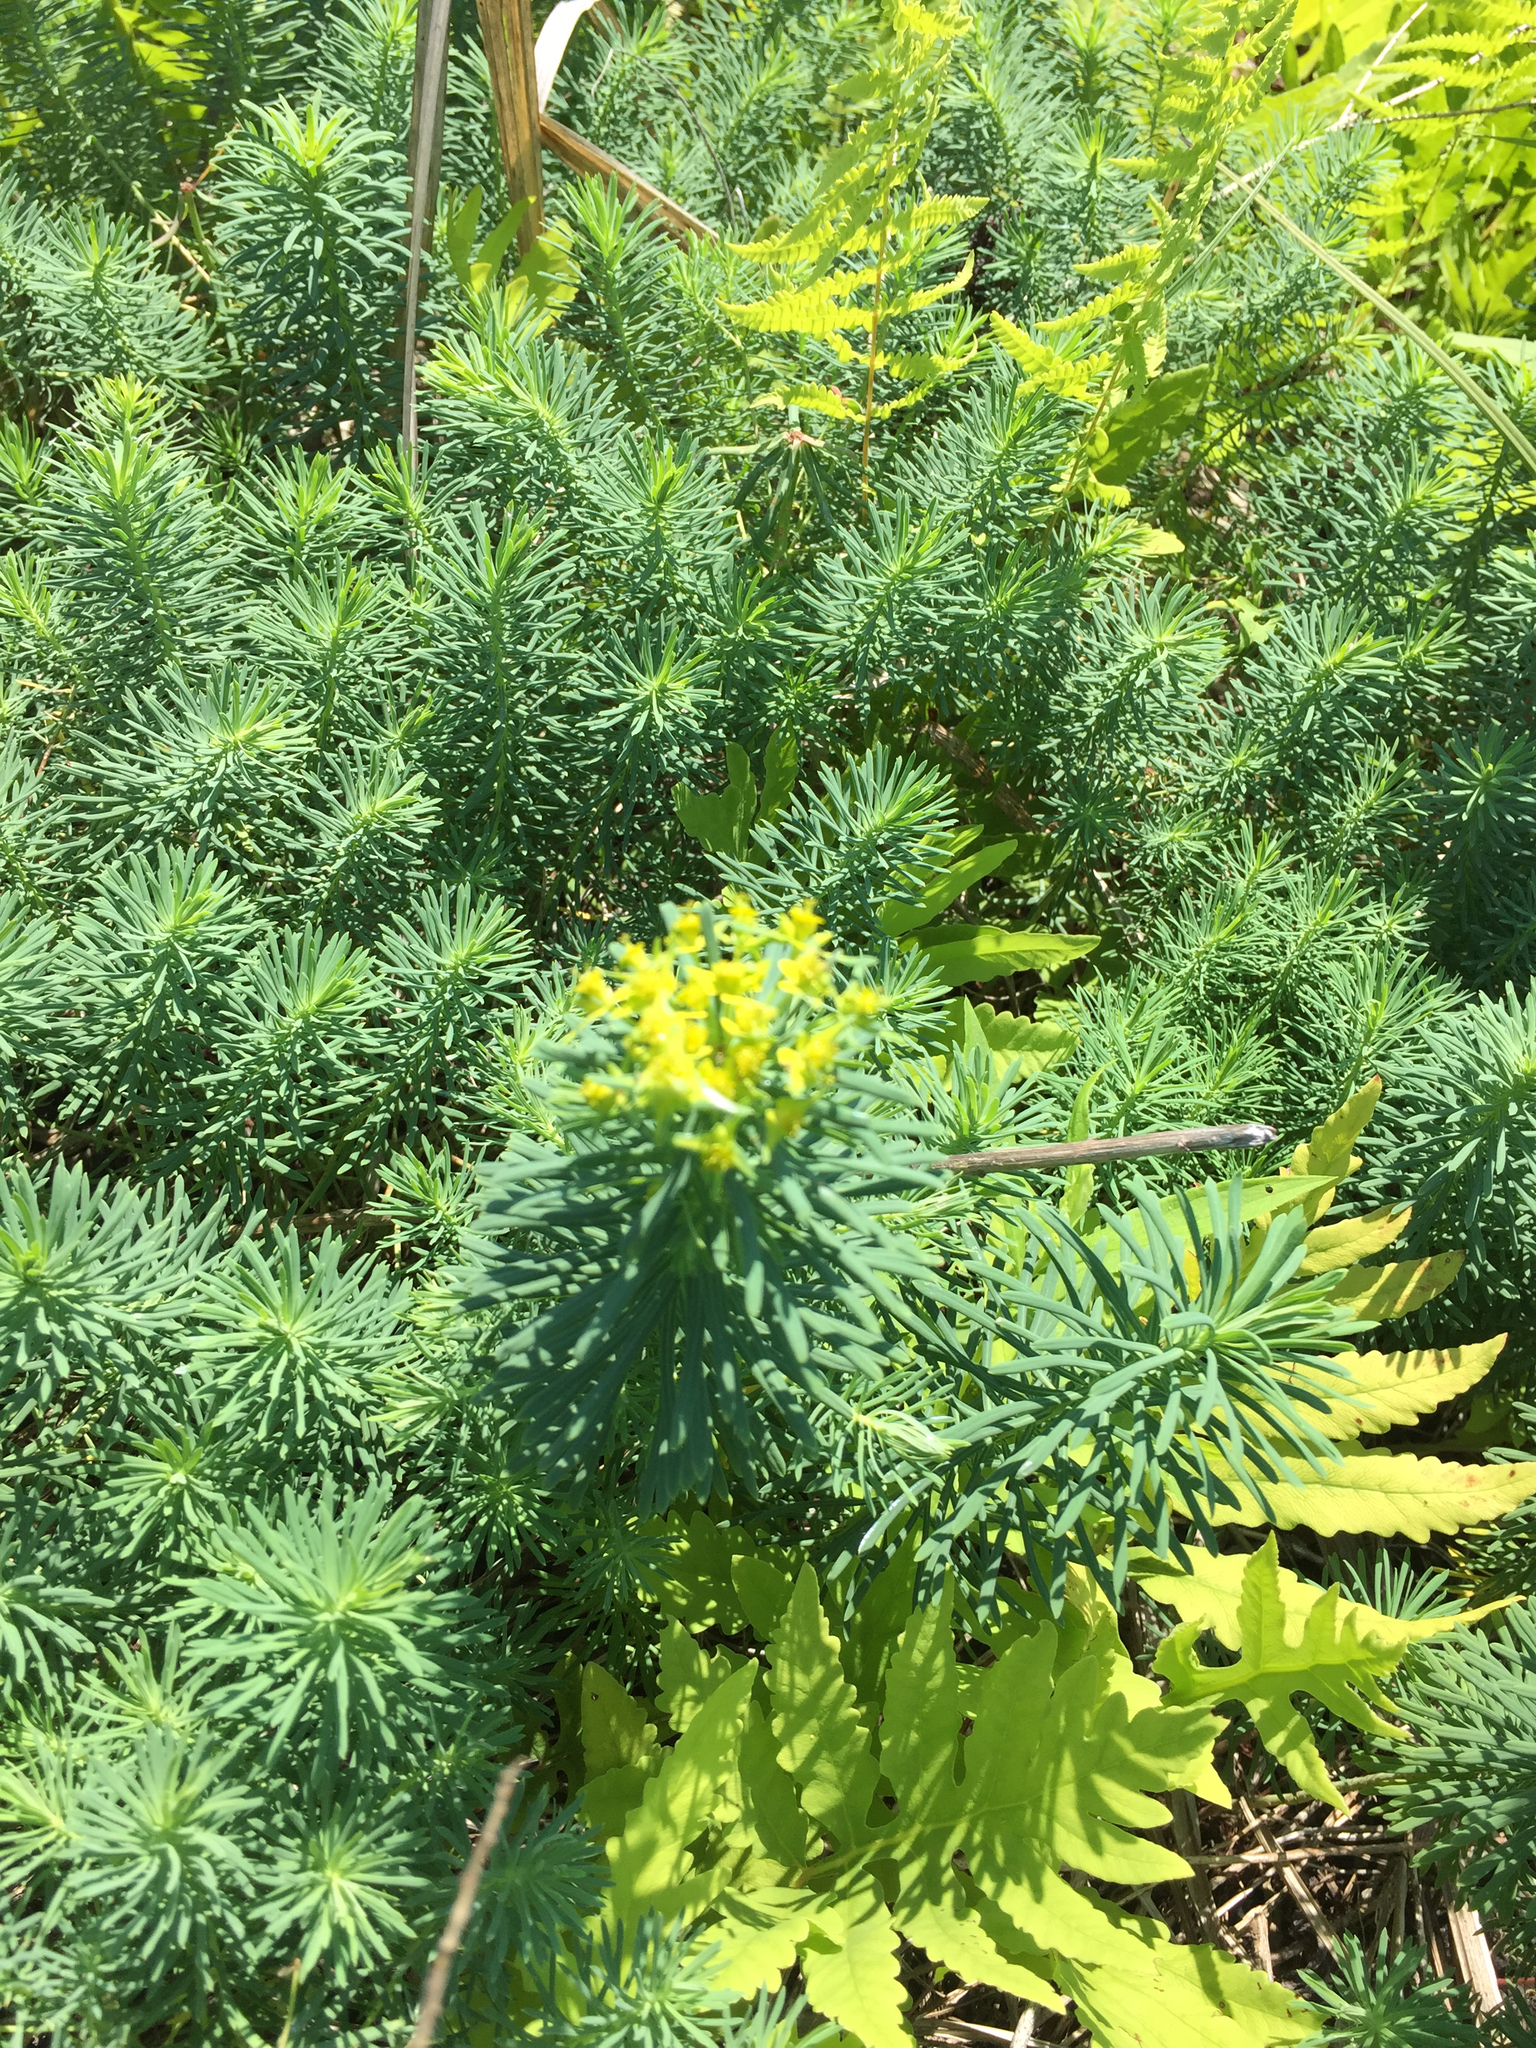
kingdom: Plantae
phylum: Tracheophyta
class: Magnoliopsida
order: Malpighiales
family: Euphorbiaceae
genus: Euphorbia
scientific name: Euphorbia cyparissias
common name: Cypress spurge
